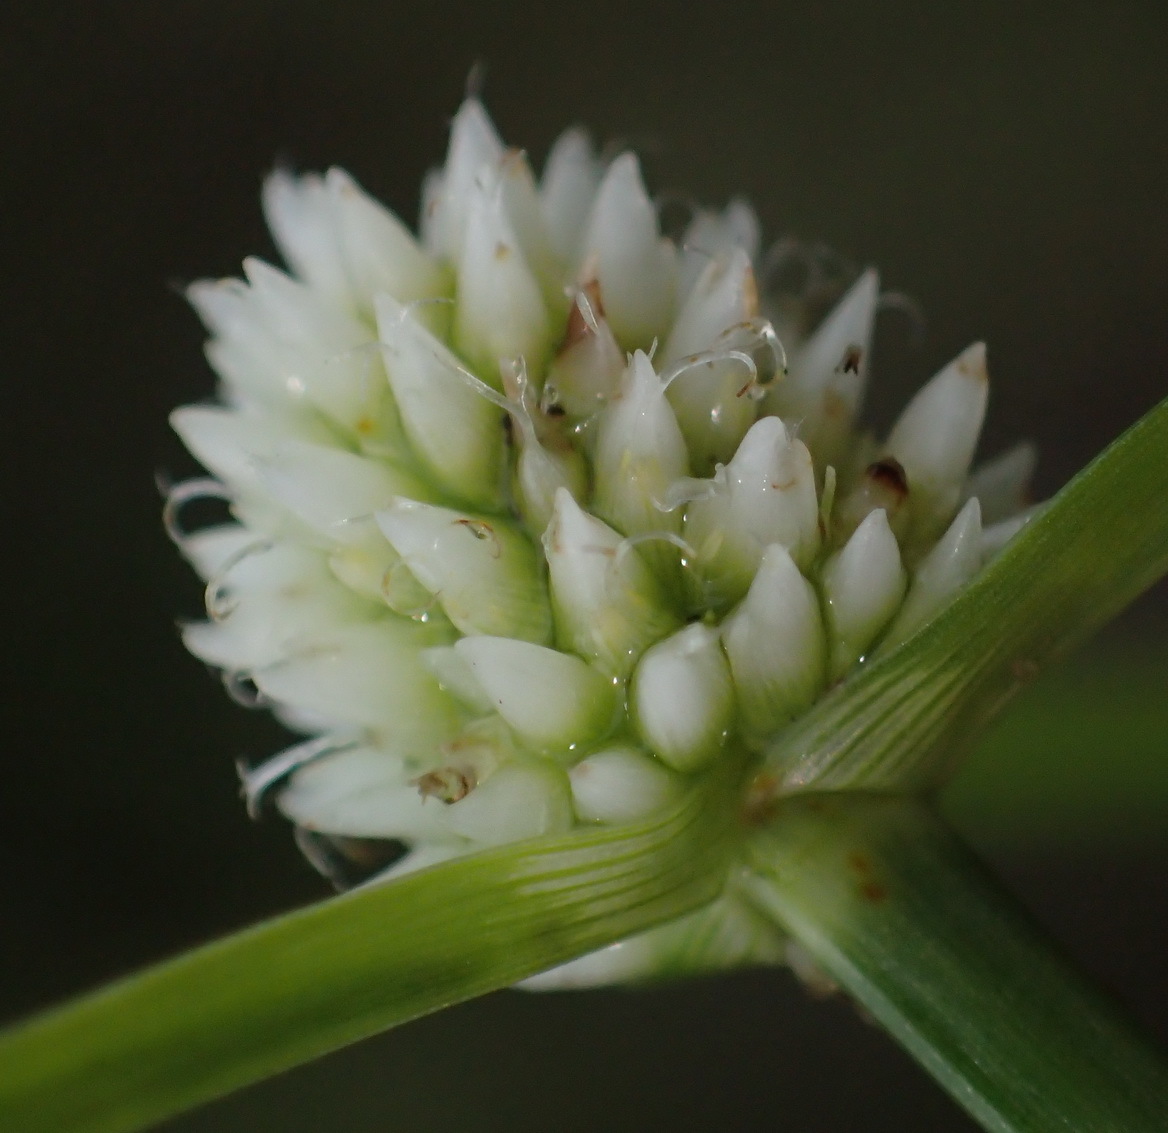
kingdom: Plantae
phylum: Tracheophyta
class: Liliopsida
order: Poales
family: Cyperaceae
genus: Cyperus
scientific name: Cyperus dubius
